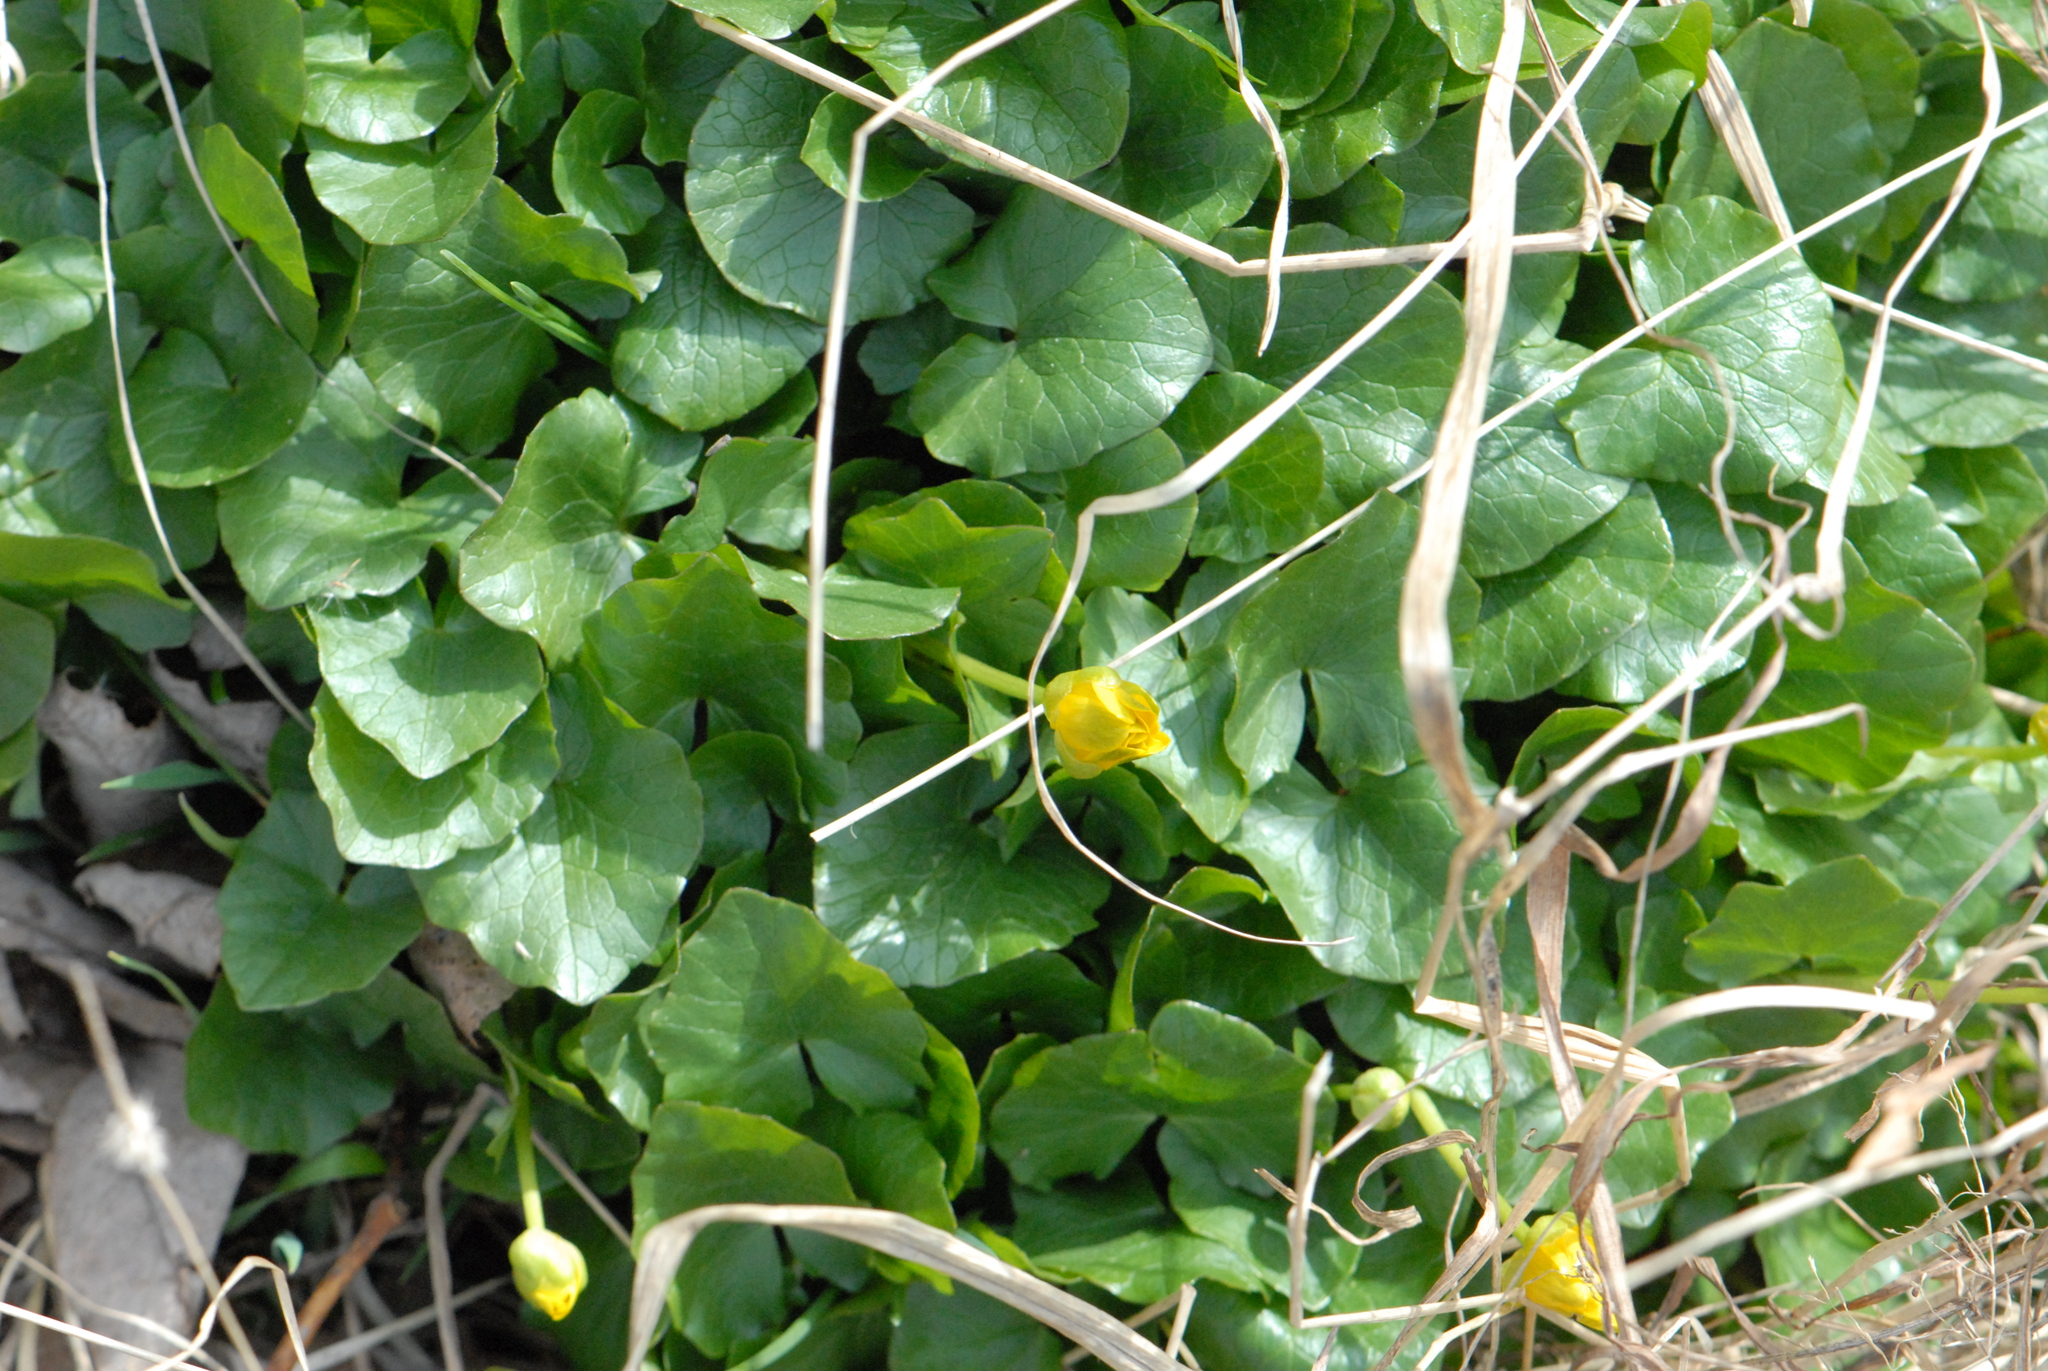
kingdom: Plantae
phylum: Tracheophyta
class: Magnoliopsida
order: Ranunculales
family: Ranunculaceae
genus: Ficaria
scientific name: Ficaria verna
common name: Lesser celandine
